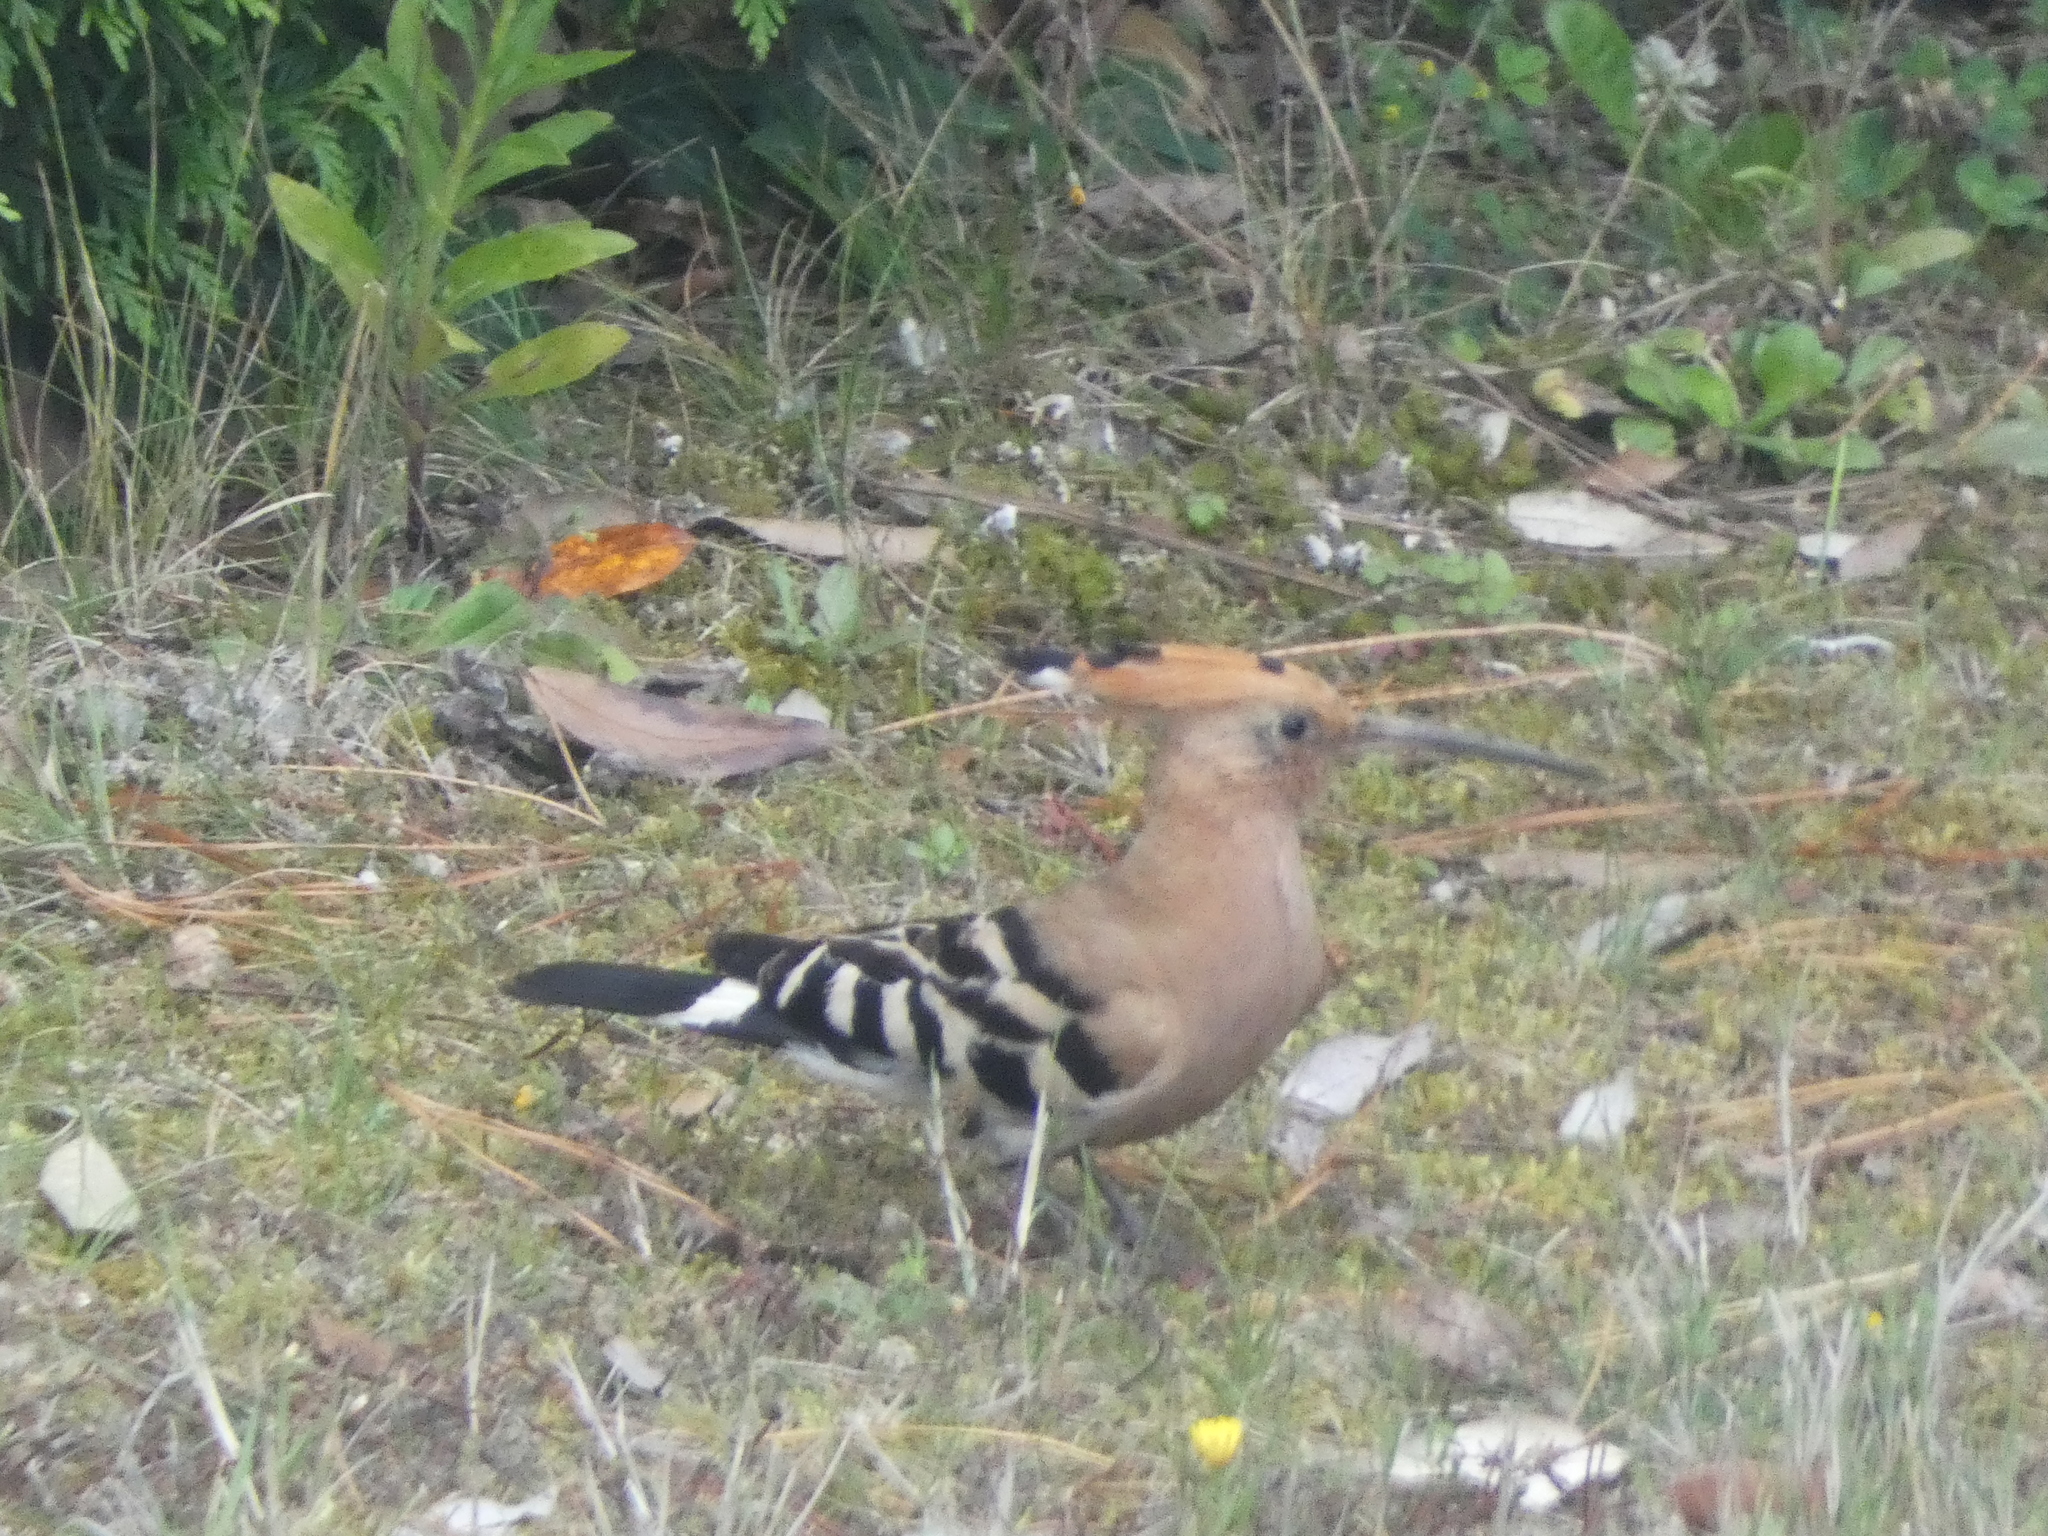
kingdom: Animalia
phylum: Chordata
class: Aves
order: Bucerotiformes
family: Upupidae
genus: Upupa
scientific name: Upupa epops
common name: Eurasian hoopoe
